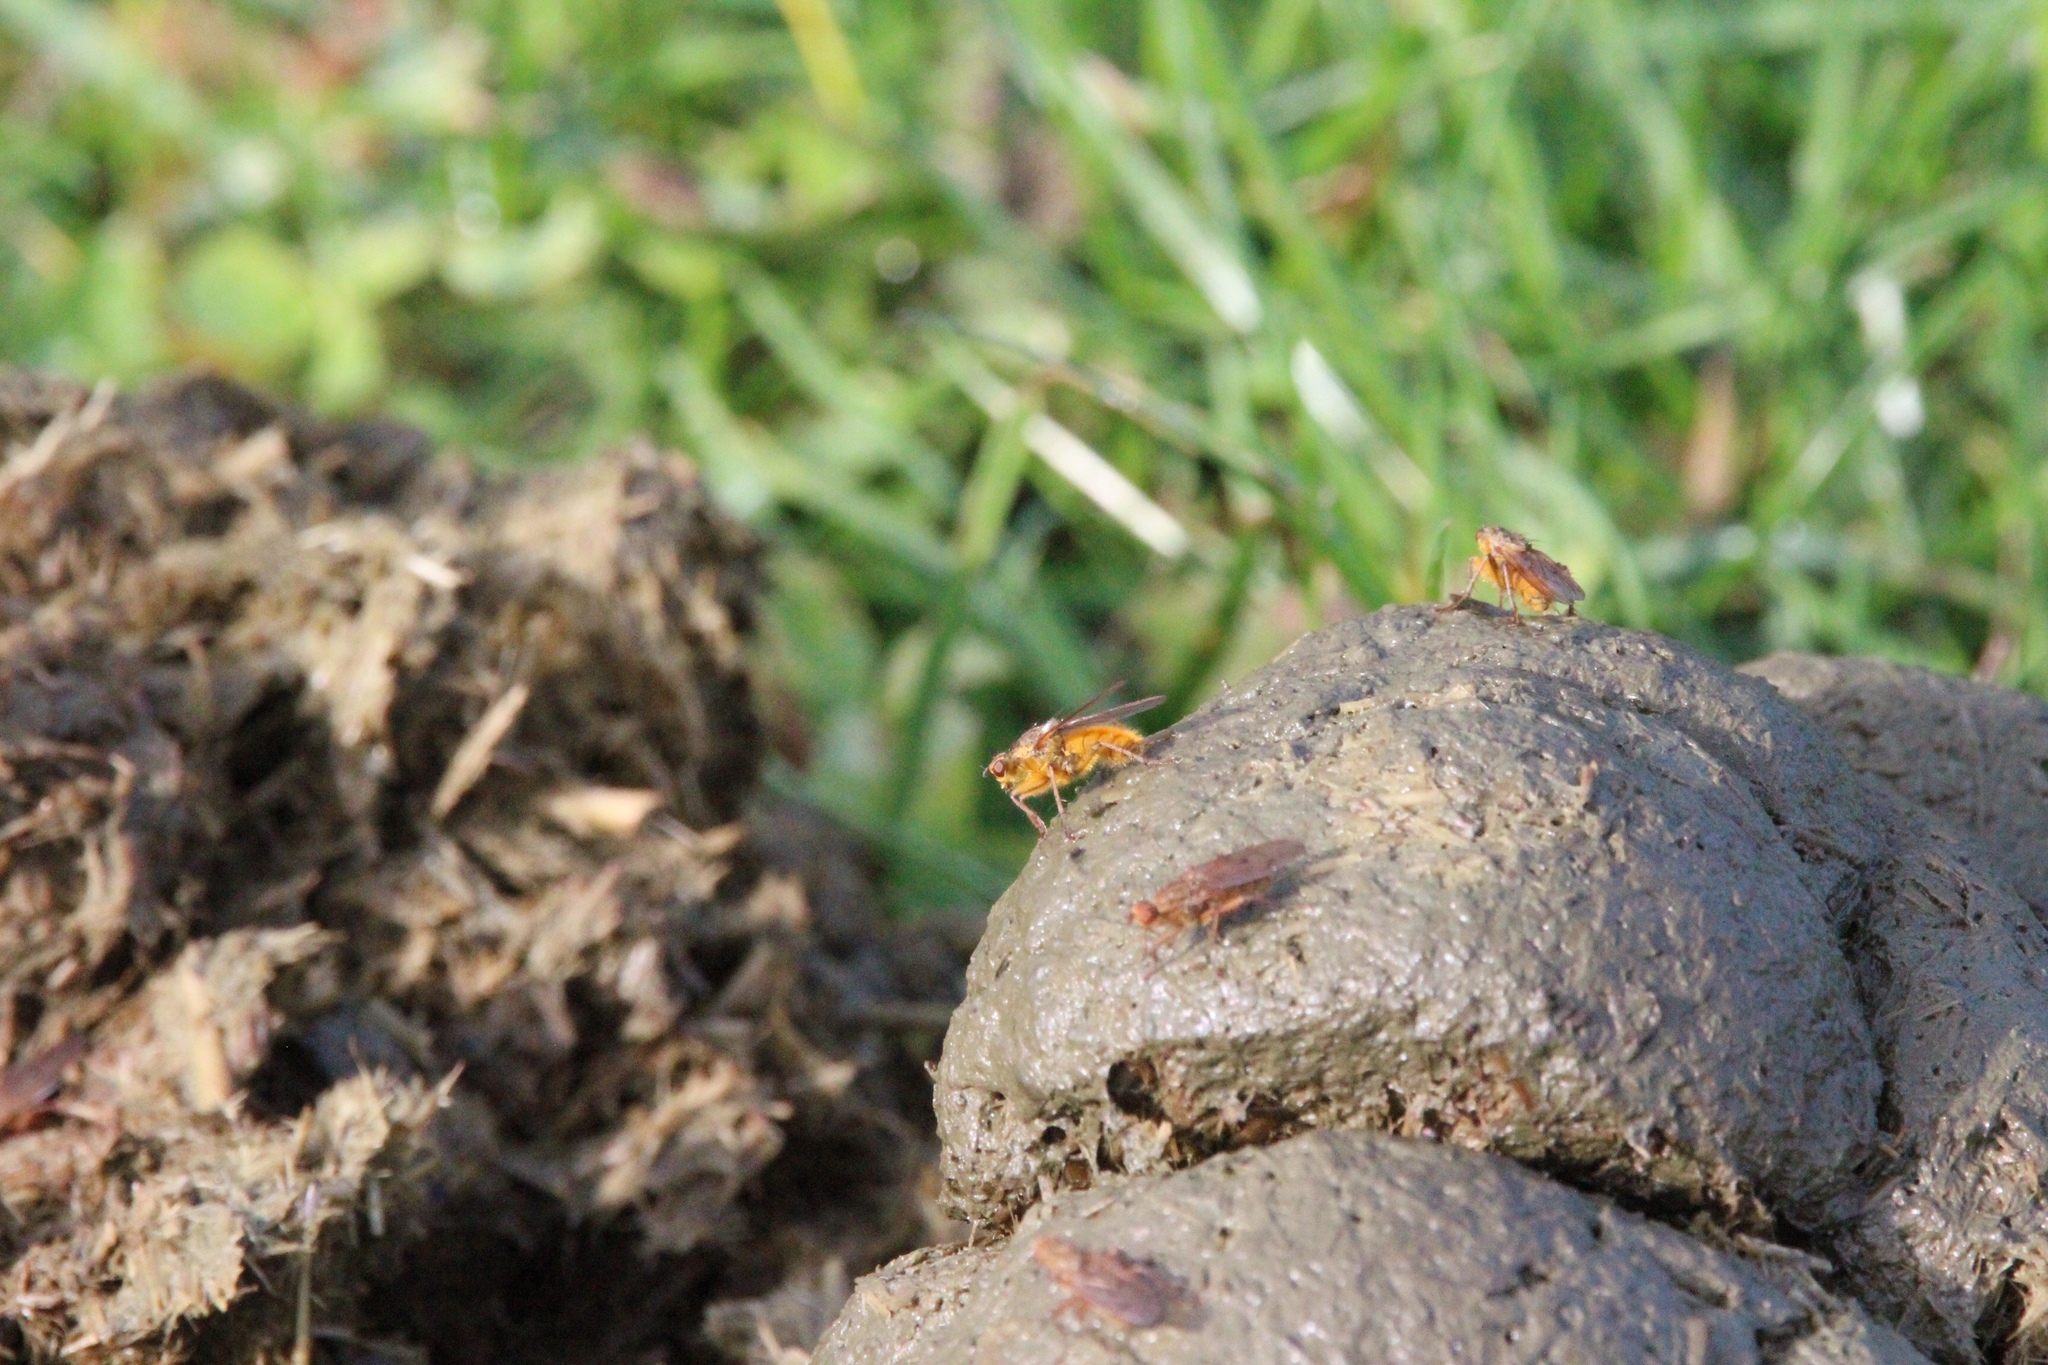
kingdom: Animalia
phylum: Arthropoda
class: Insecta
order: Diptera
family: Scathophagidae
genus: Scathophaga
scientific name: Scathophaga stercoraria
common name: Yellow dung fly
